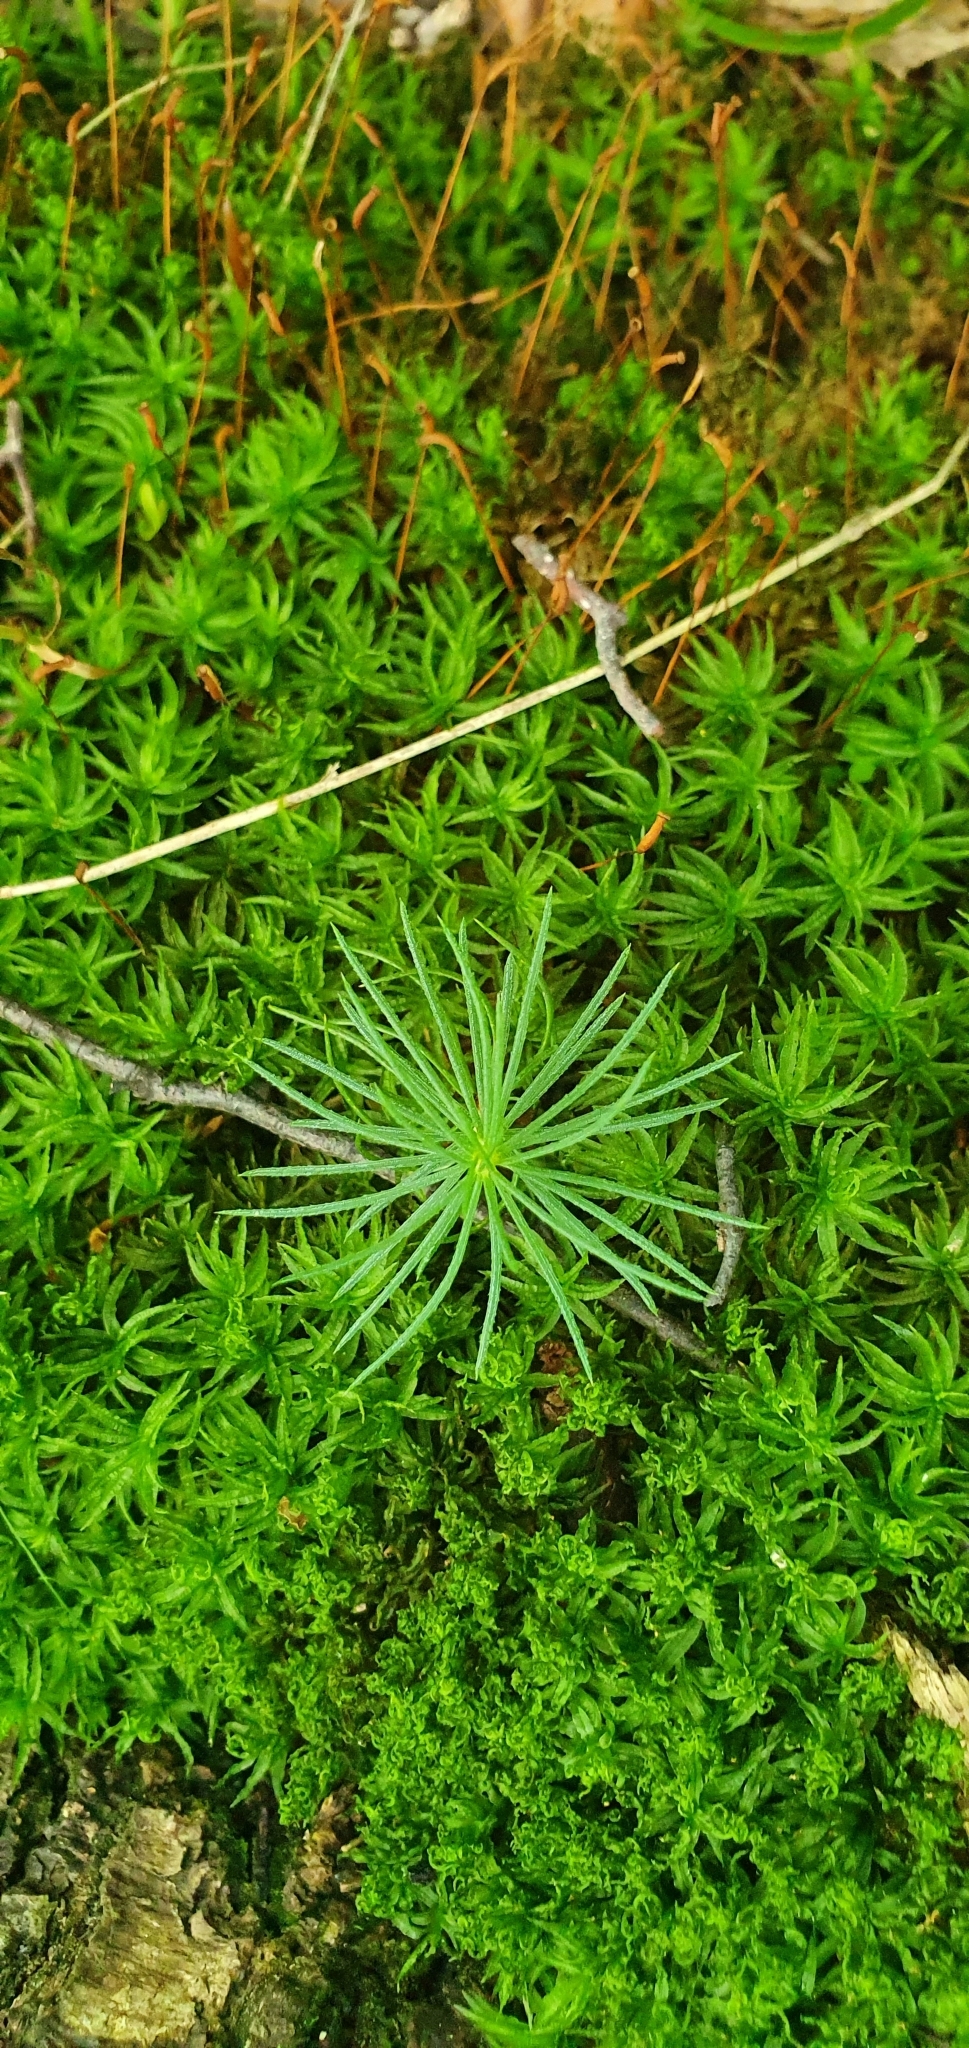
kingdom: Plantae
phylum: Tracheophyta
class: Pinopsida
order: Pinales
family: Pinaceae
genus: Pinus
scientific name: Pinus sylvestris
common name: Scots pine
